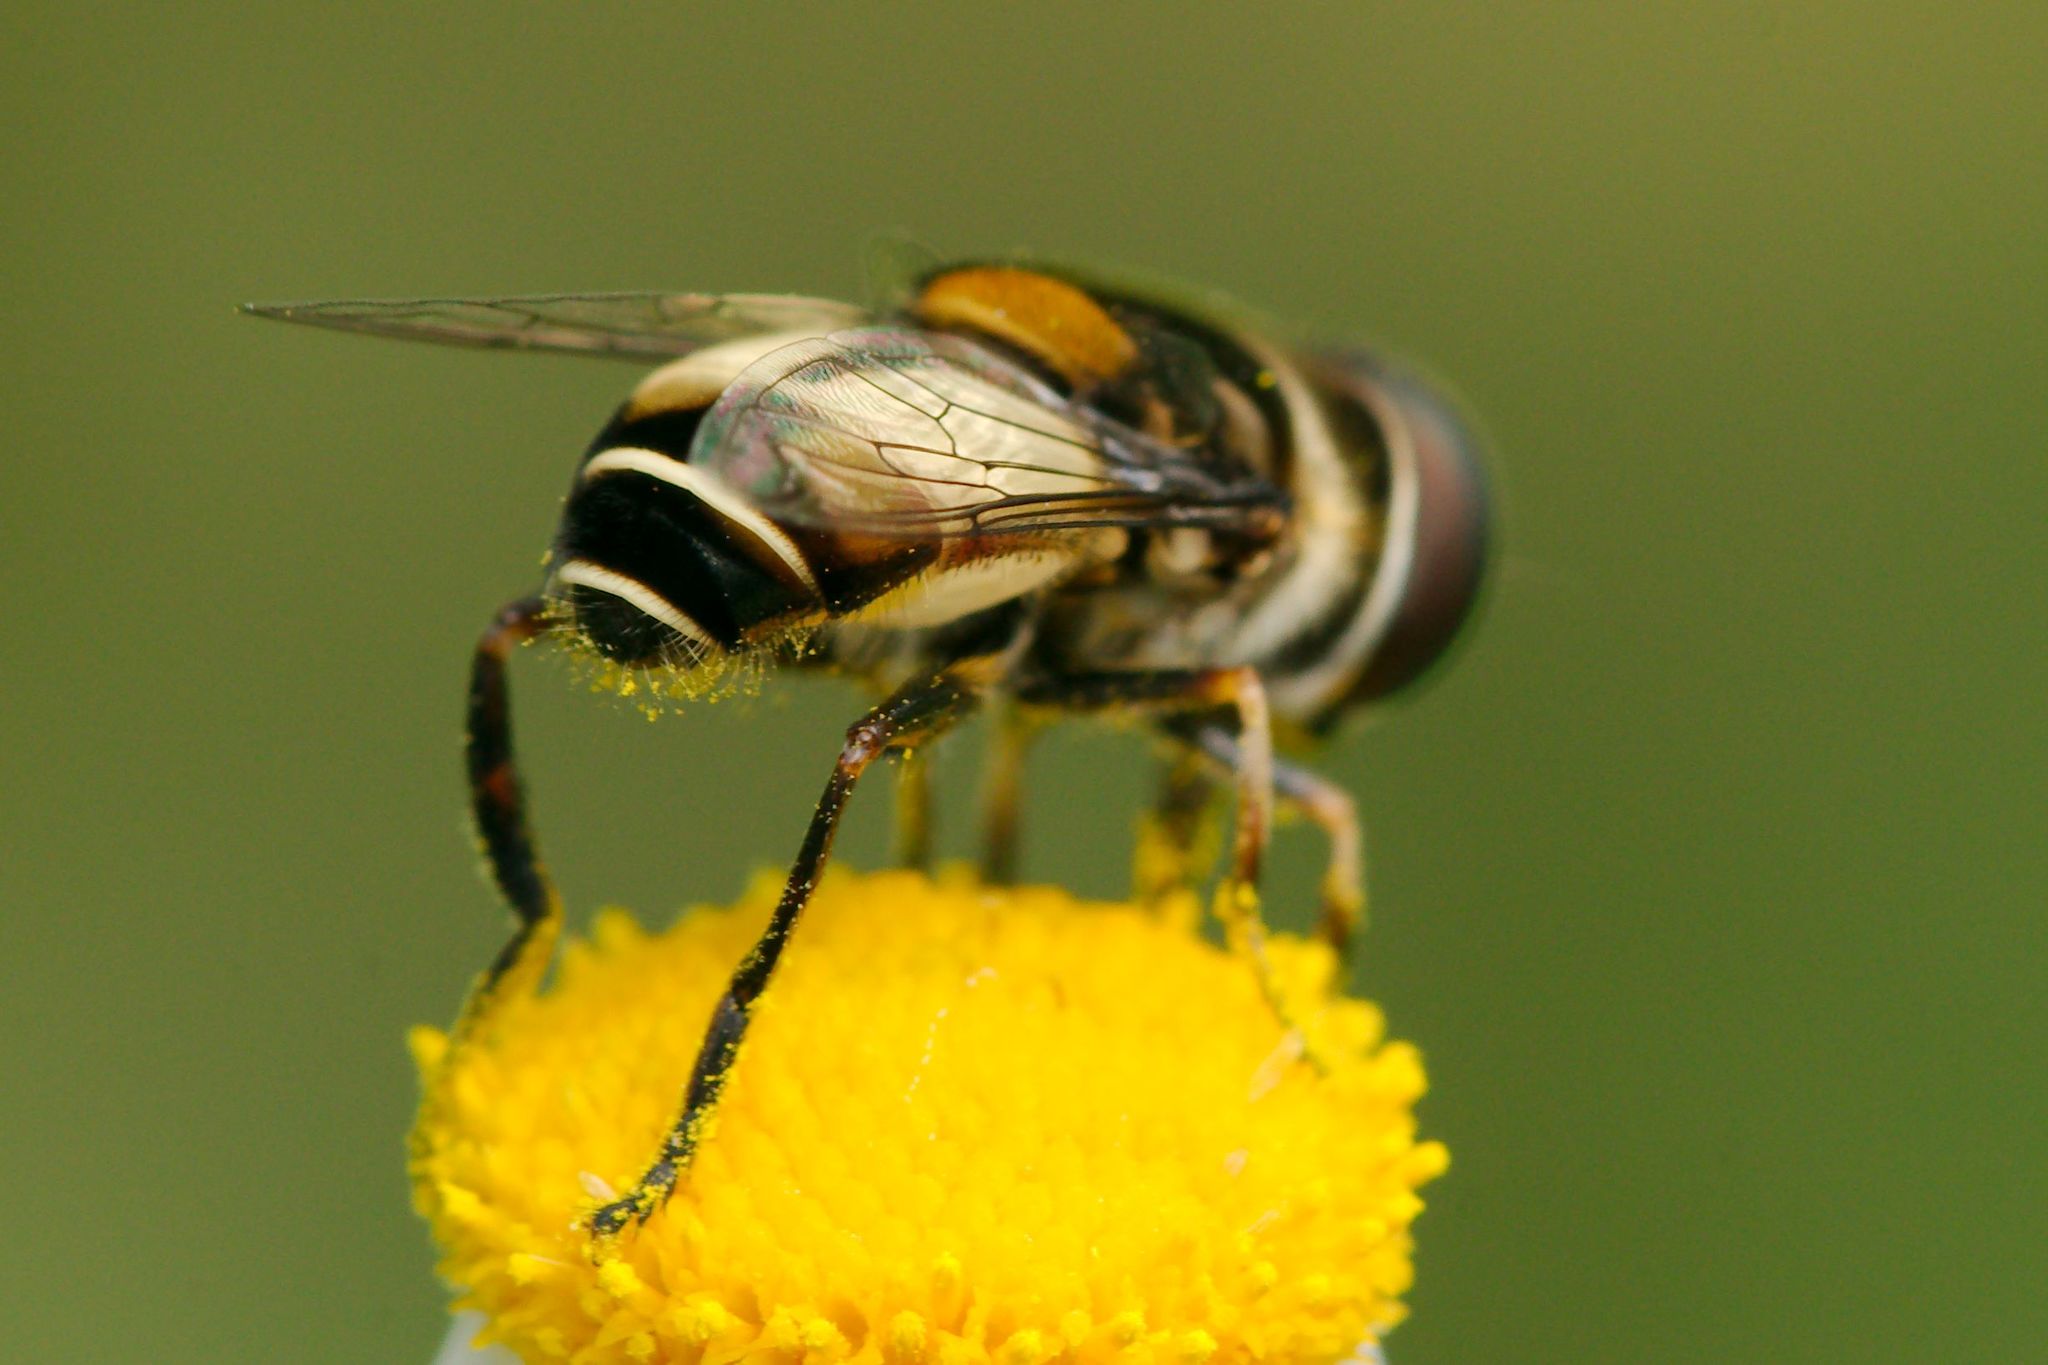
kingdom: Animalia
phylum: Arthropoda
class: Insecta
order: Diptera
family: Syrphidae
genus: Palpada
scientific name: Palpada albifrons
